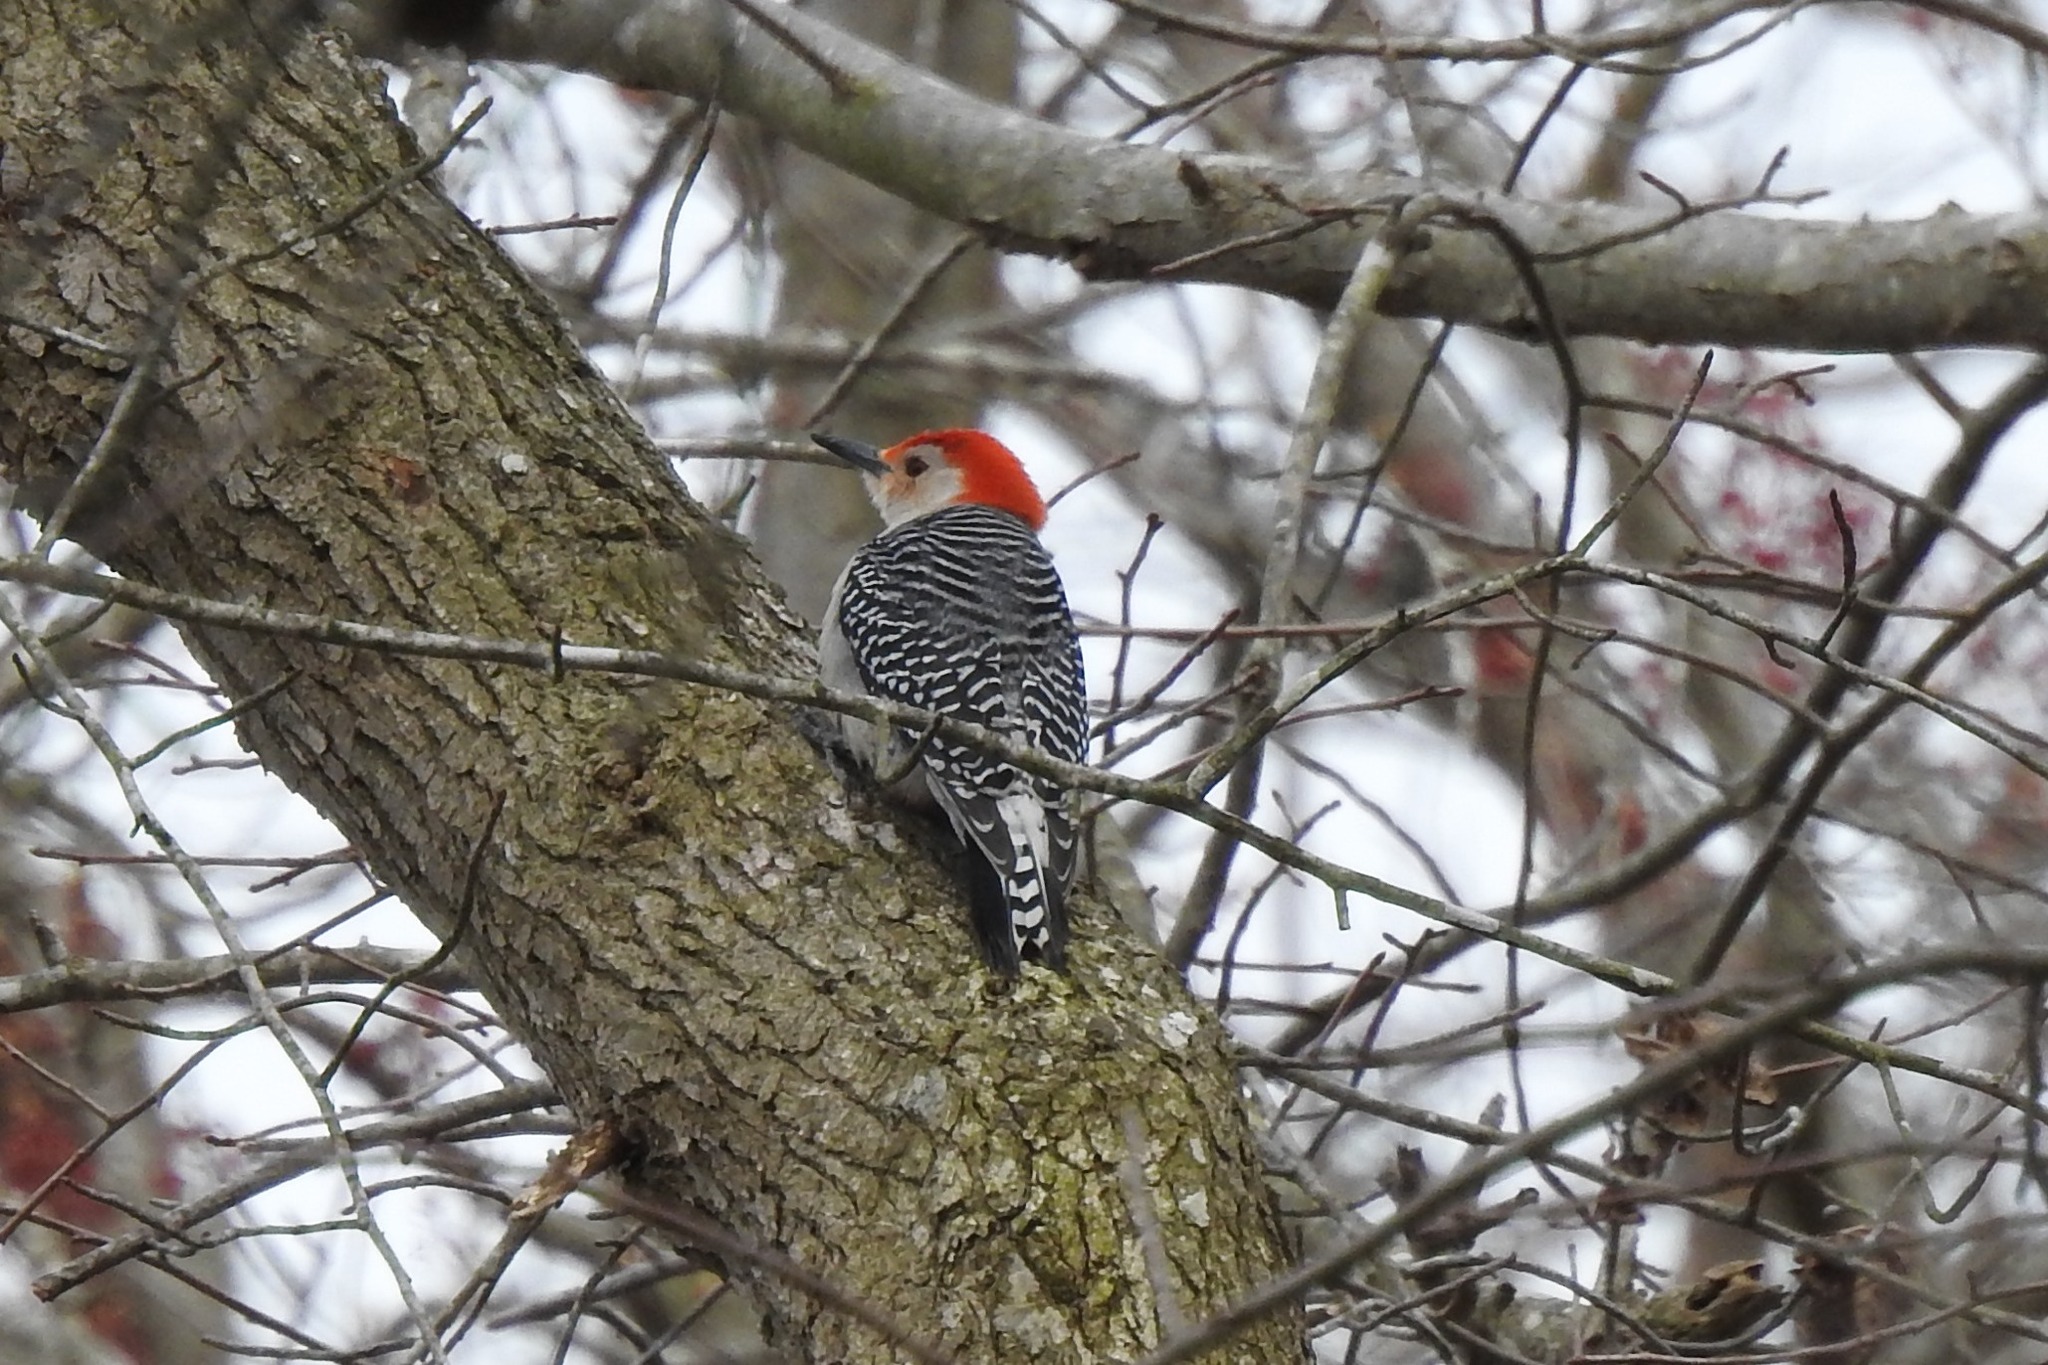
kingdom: Animalia
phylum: Chordata
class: Aves
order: Piciformes
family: Picidae
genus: Melanerpes
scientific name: Melanerpes carolinus
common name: Red-bellied woodpecker
